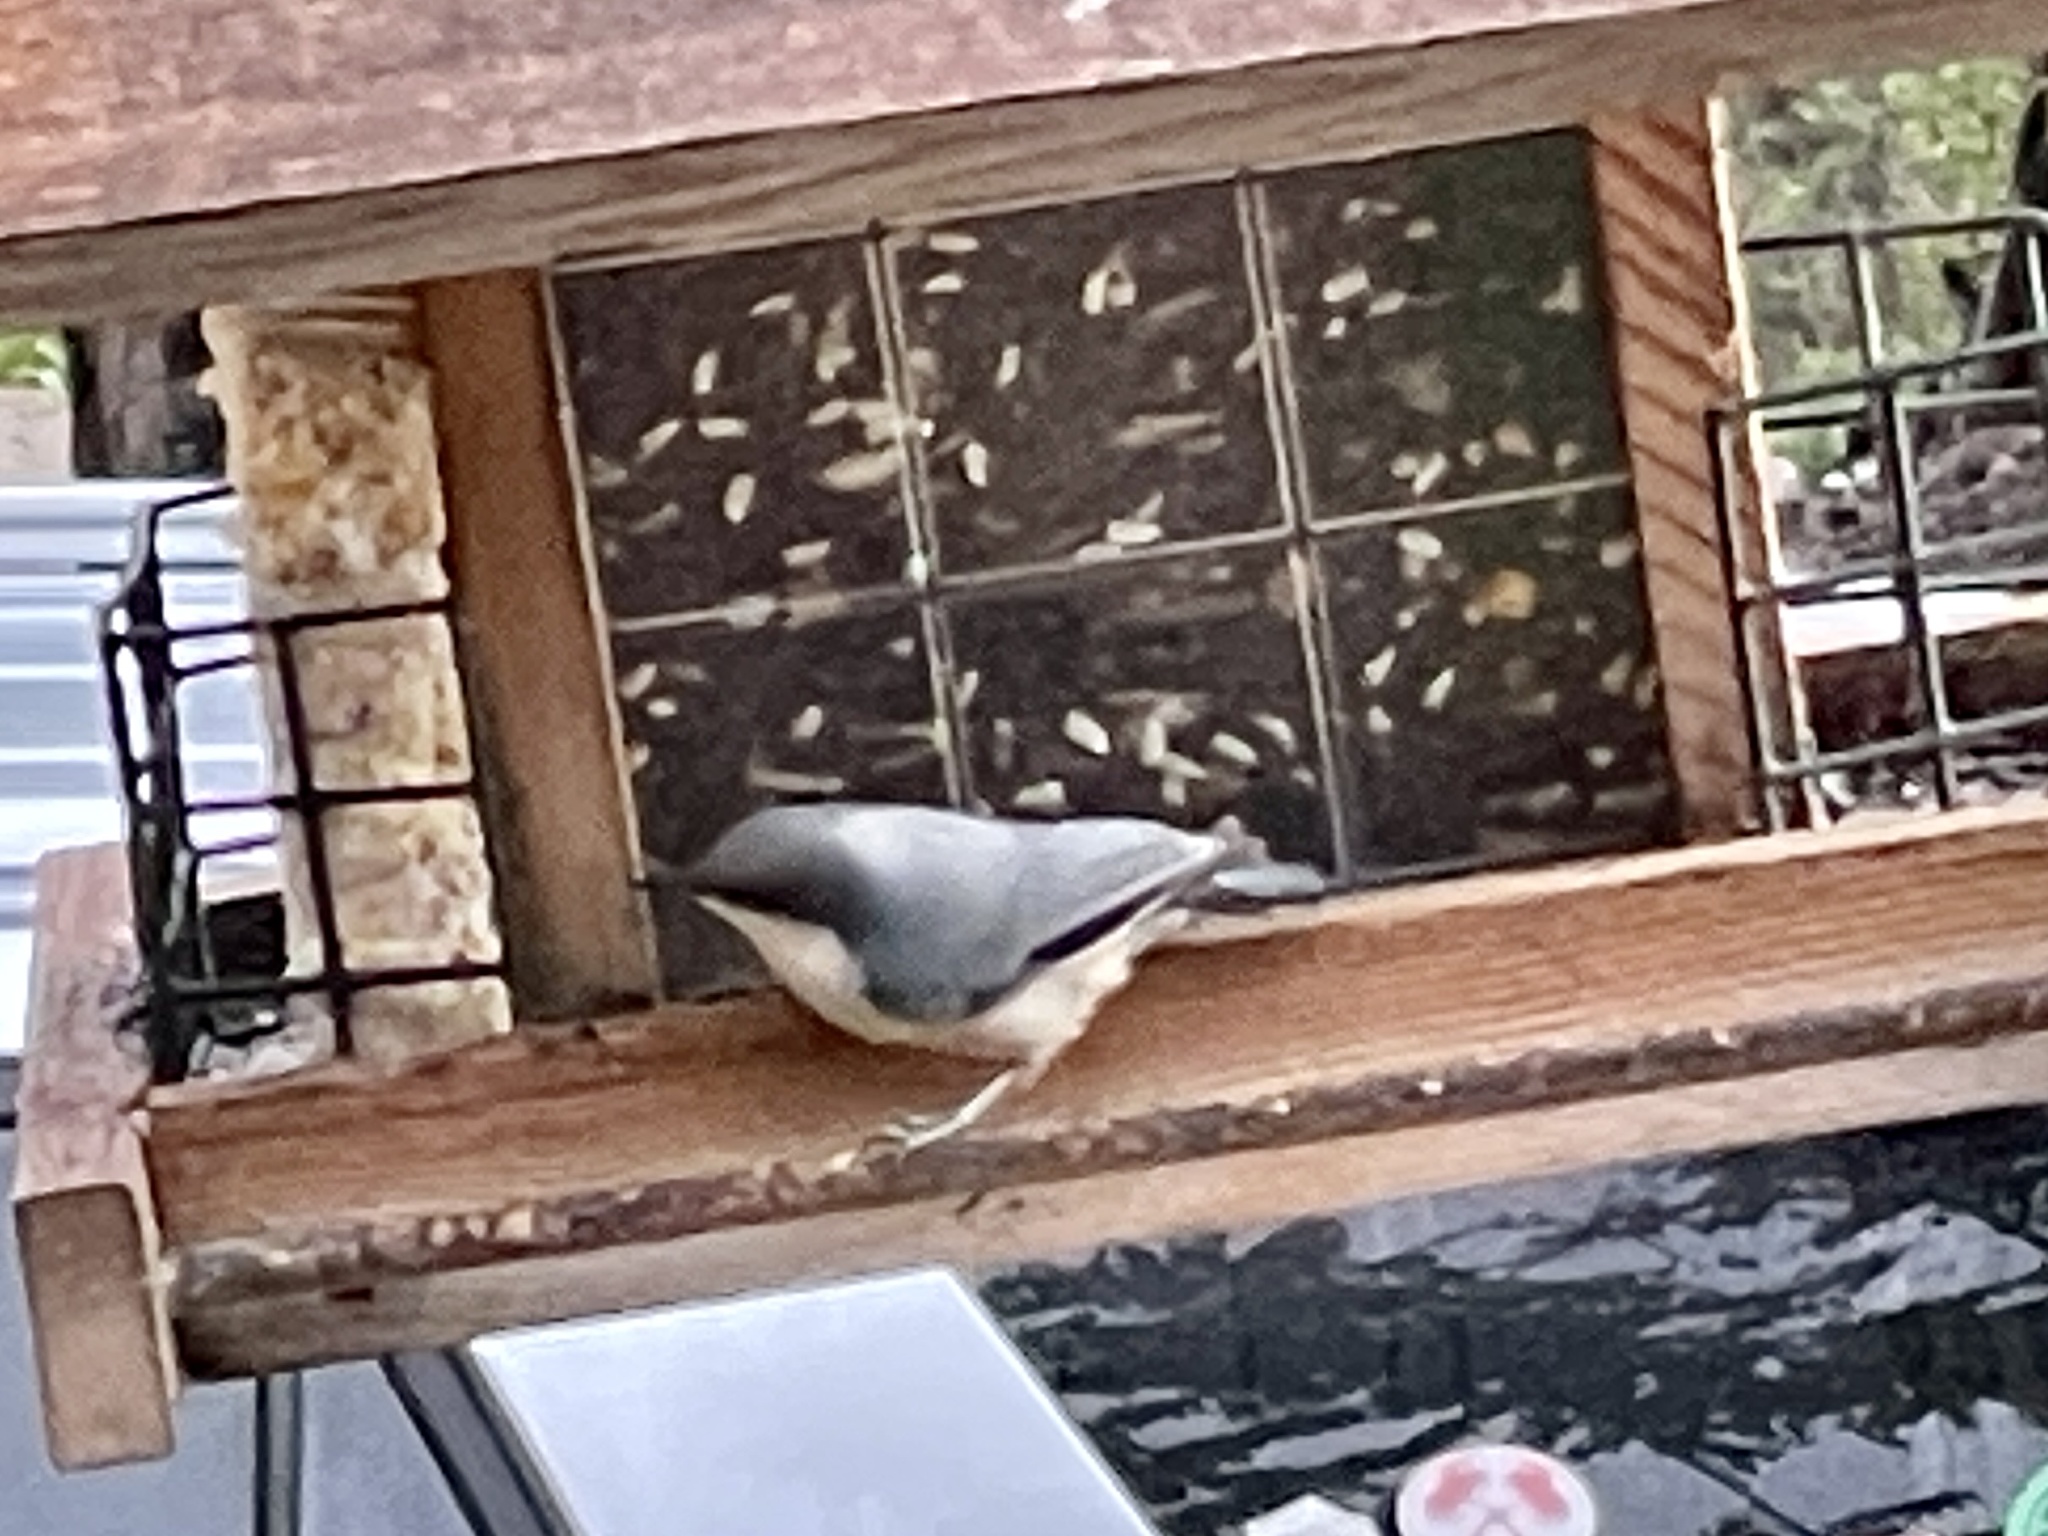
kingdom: Animalia
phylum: Chordata
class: Aves
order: Passeriformes
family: Sittidae
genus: Sitta
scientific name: Sitta pygmaea
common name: Pygmy nuthatch
